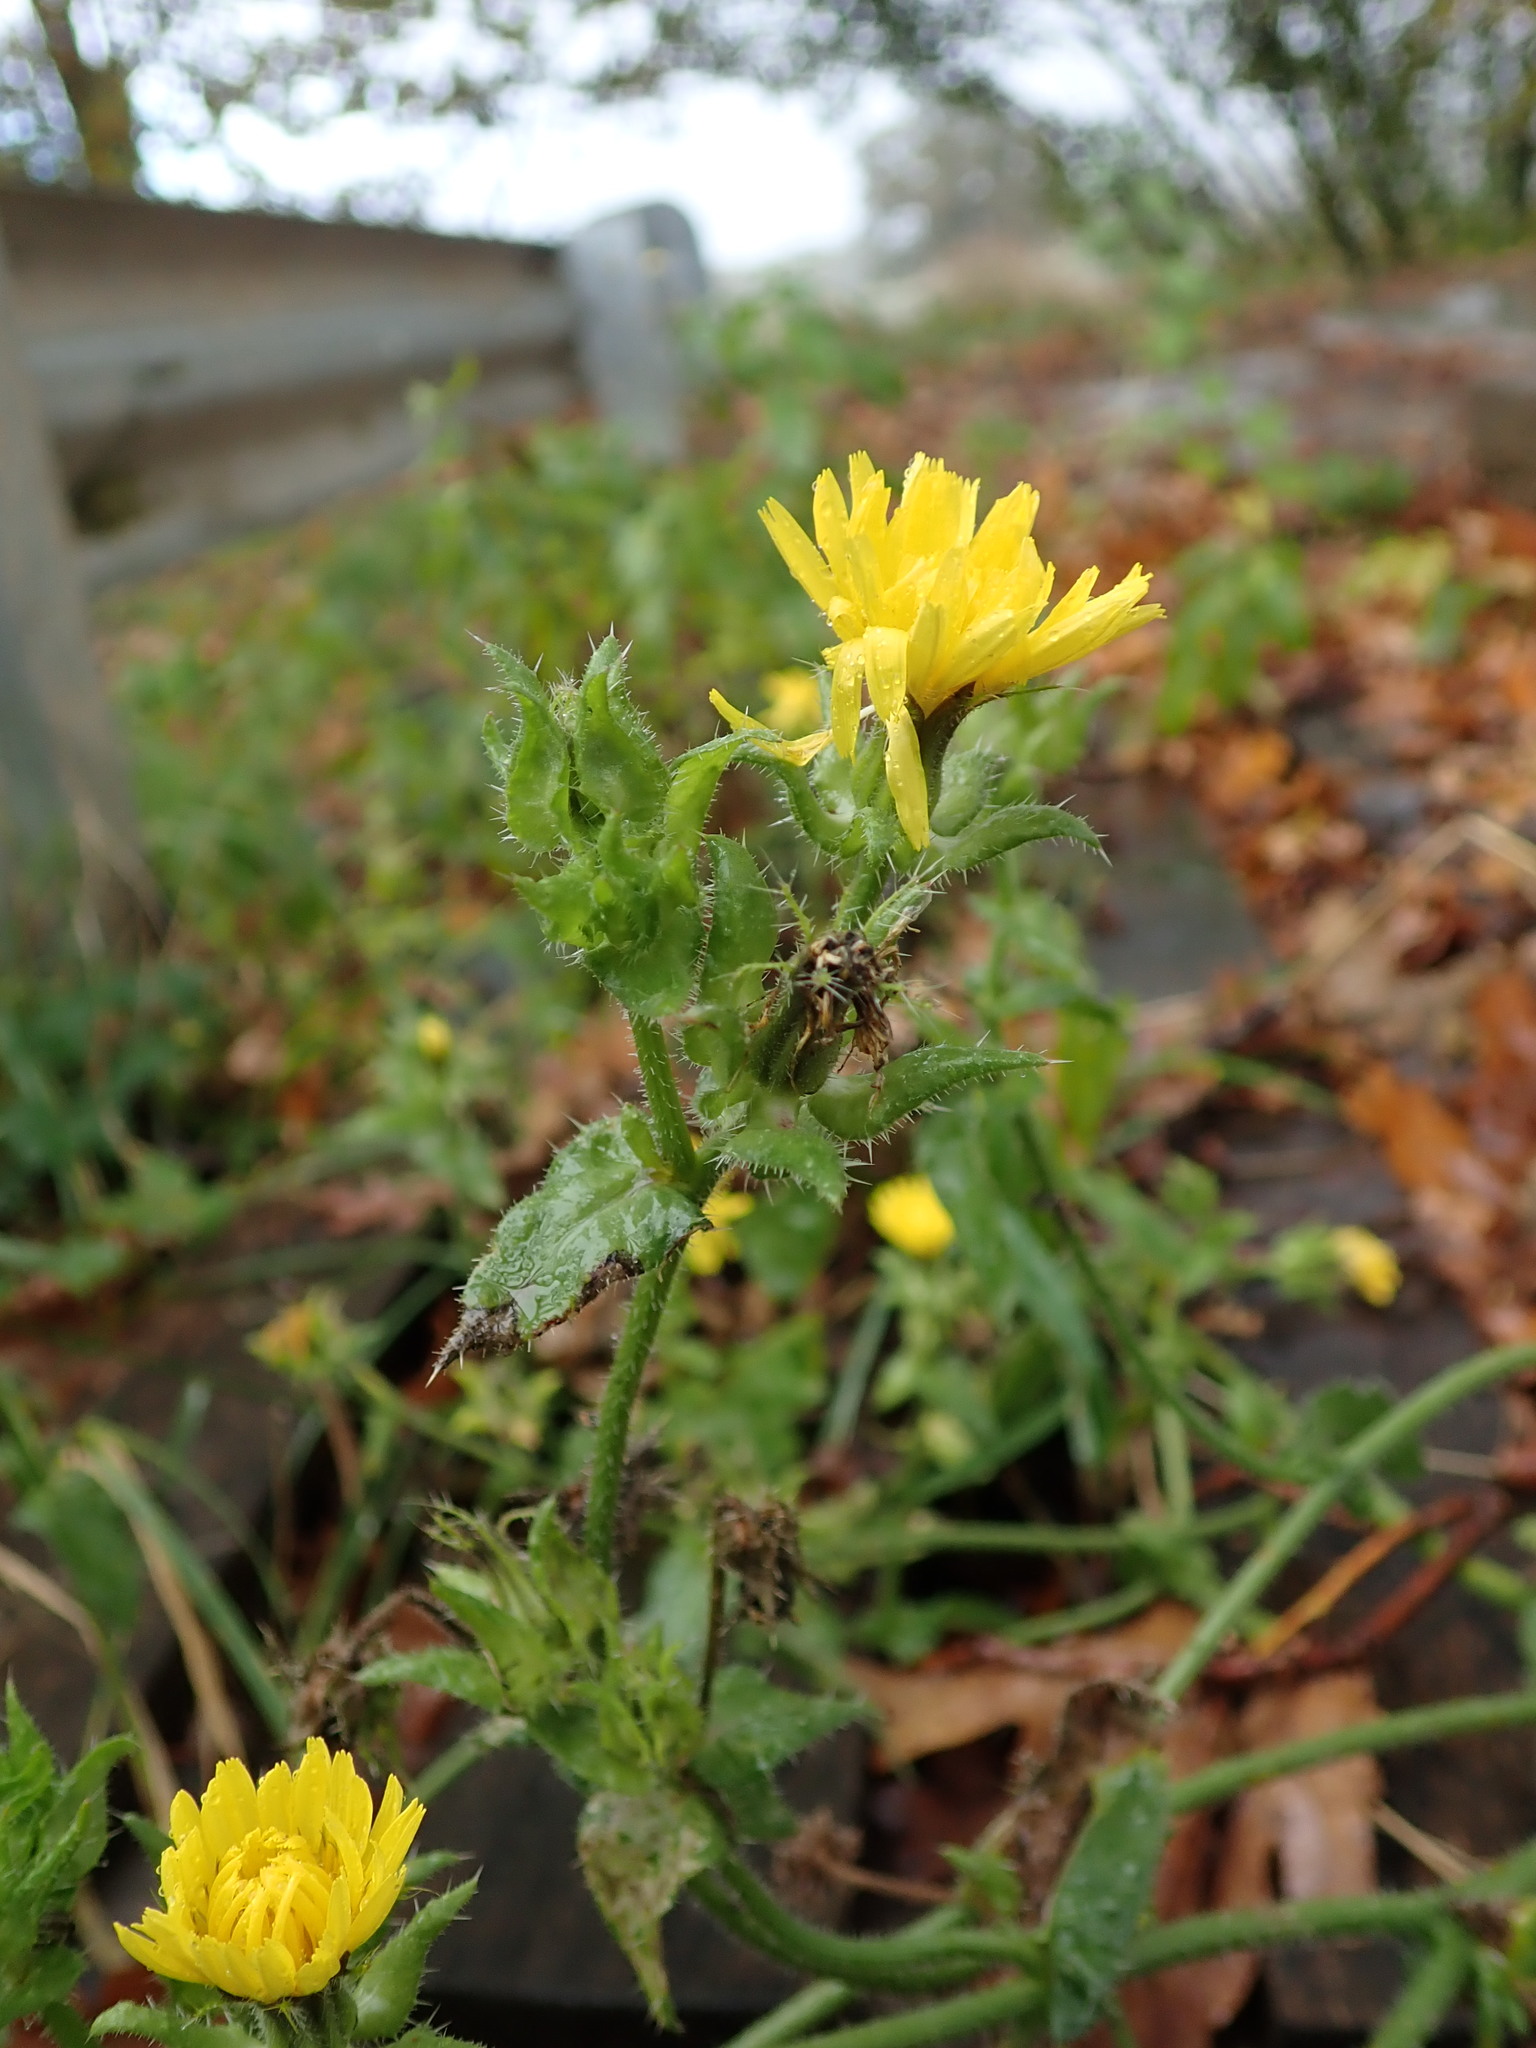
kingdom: Plantae
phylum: Tracheophyta
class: Magnoliopsida
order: Asterales
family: Asteraceae
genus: Helminthotheca
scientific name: Helminthotheca echioides
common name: Ox-tongue
